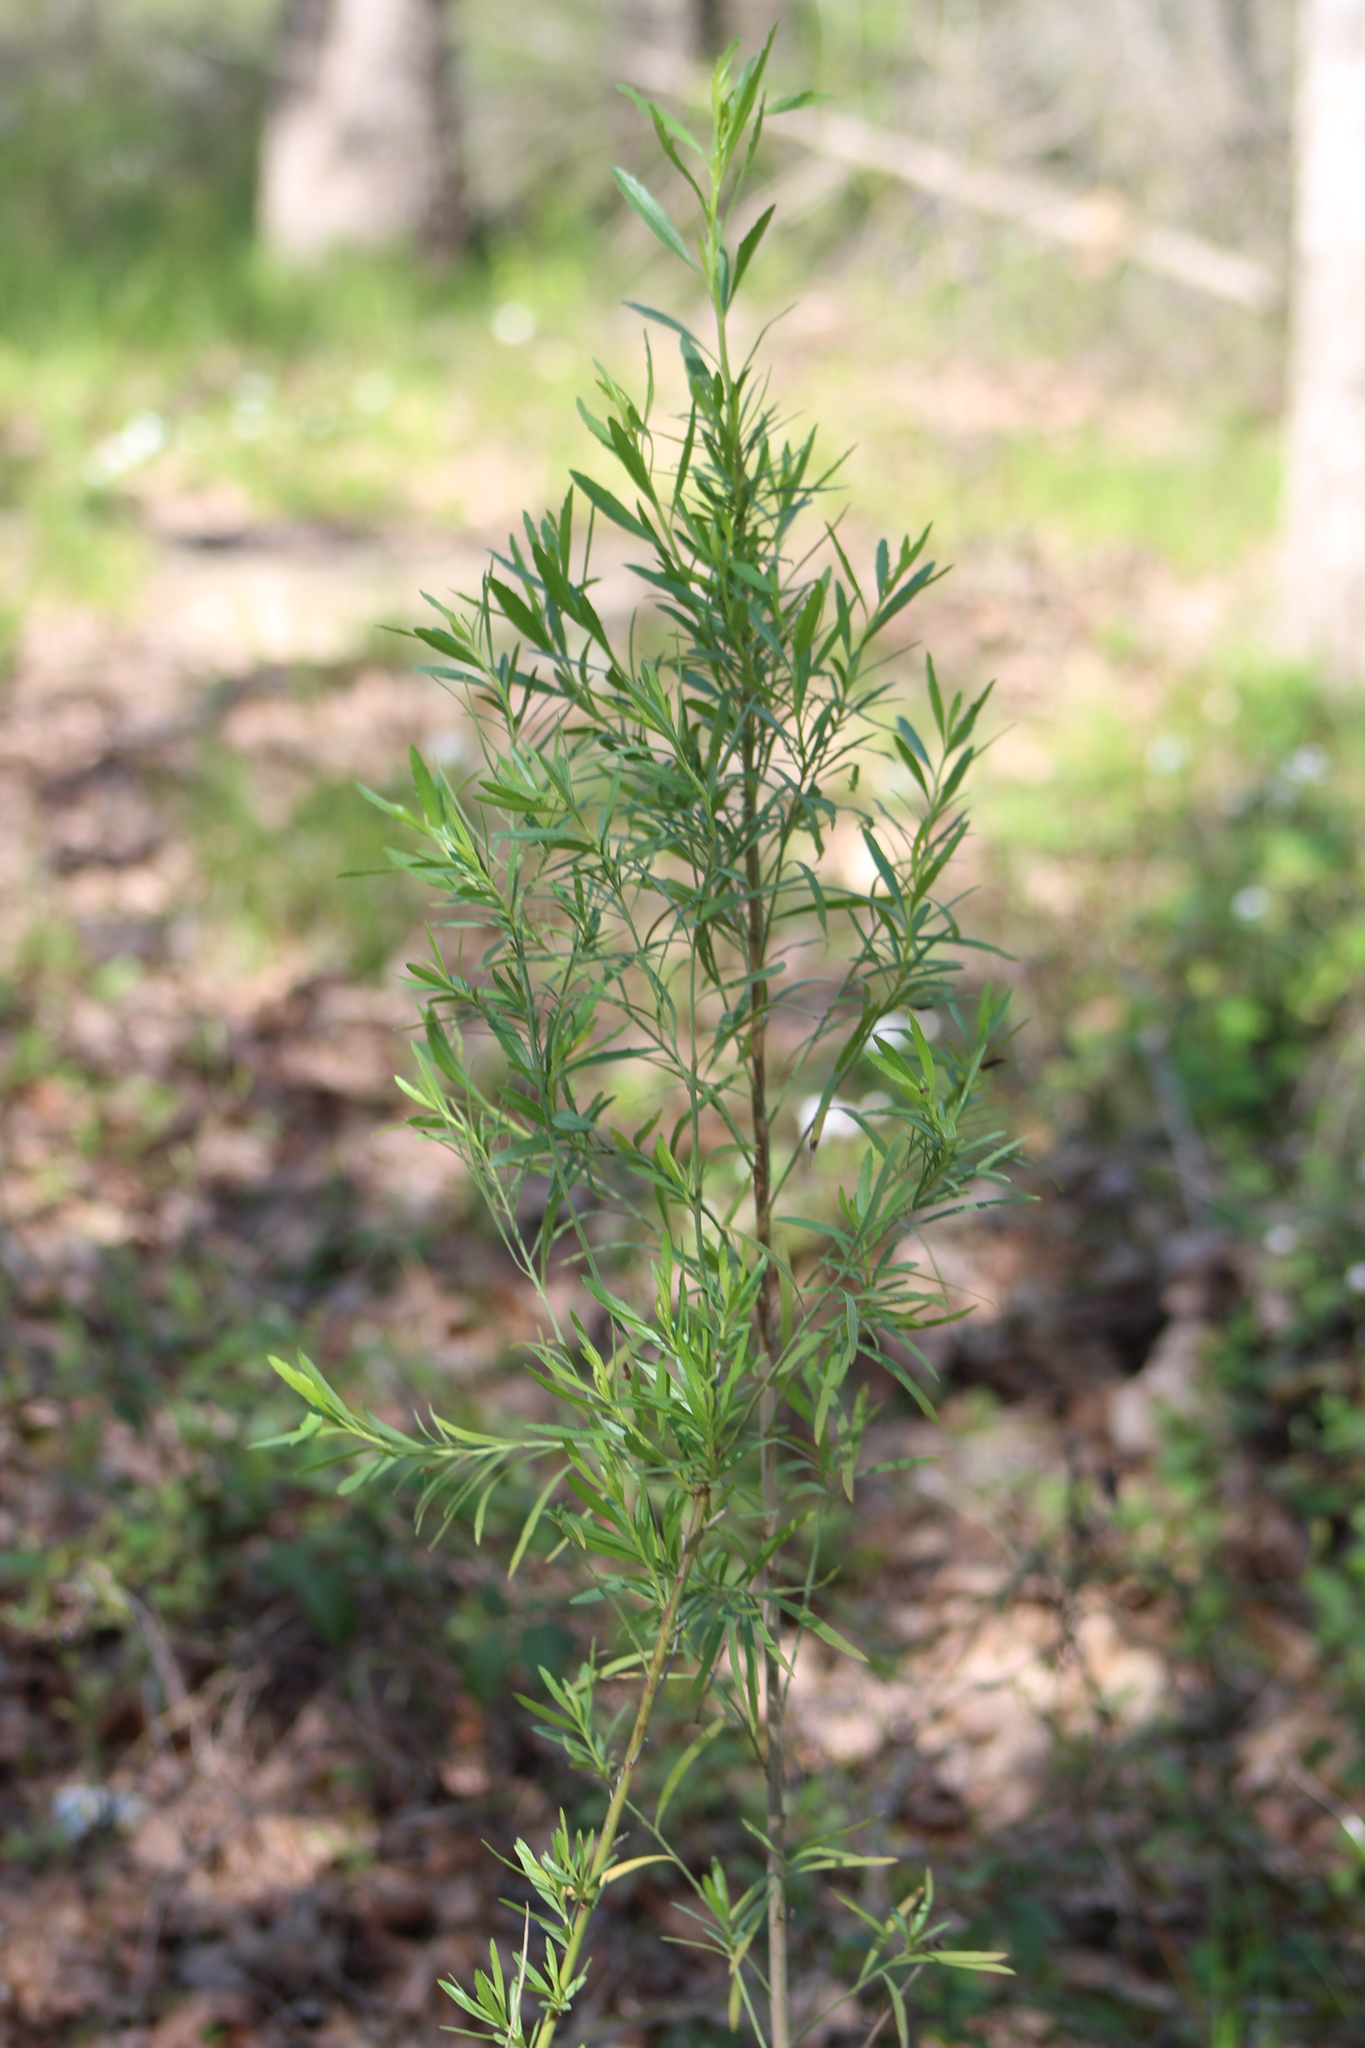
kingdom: Plantae
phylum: Tracheophyta
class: Magnoliopsida
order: Asterales
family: Asteraceae
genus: Baccharis
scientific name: Baccharis neglecta
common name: Roosevelt-weed
